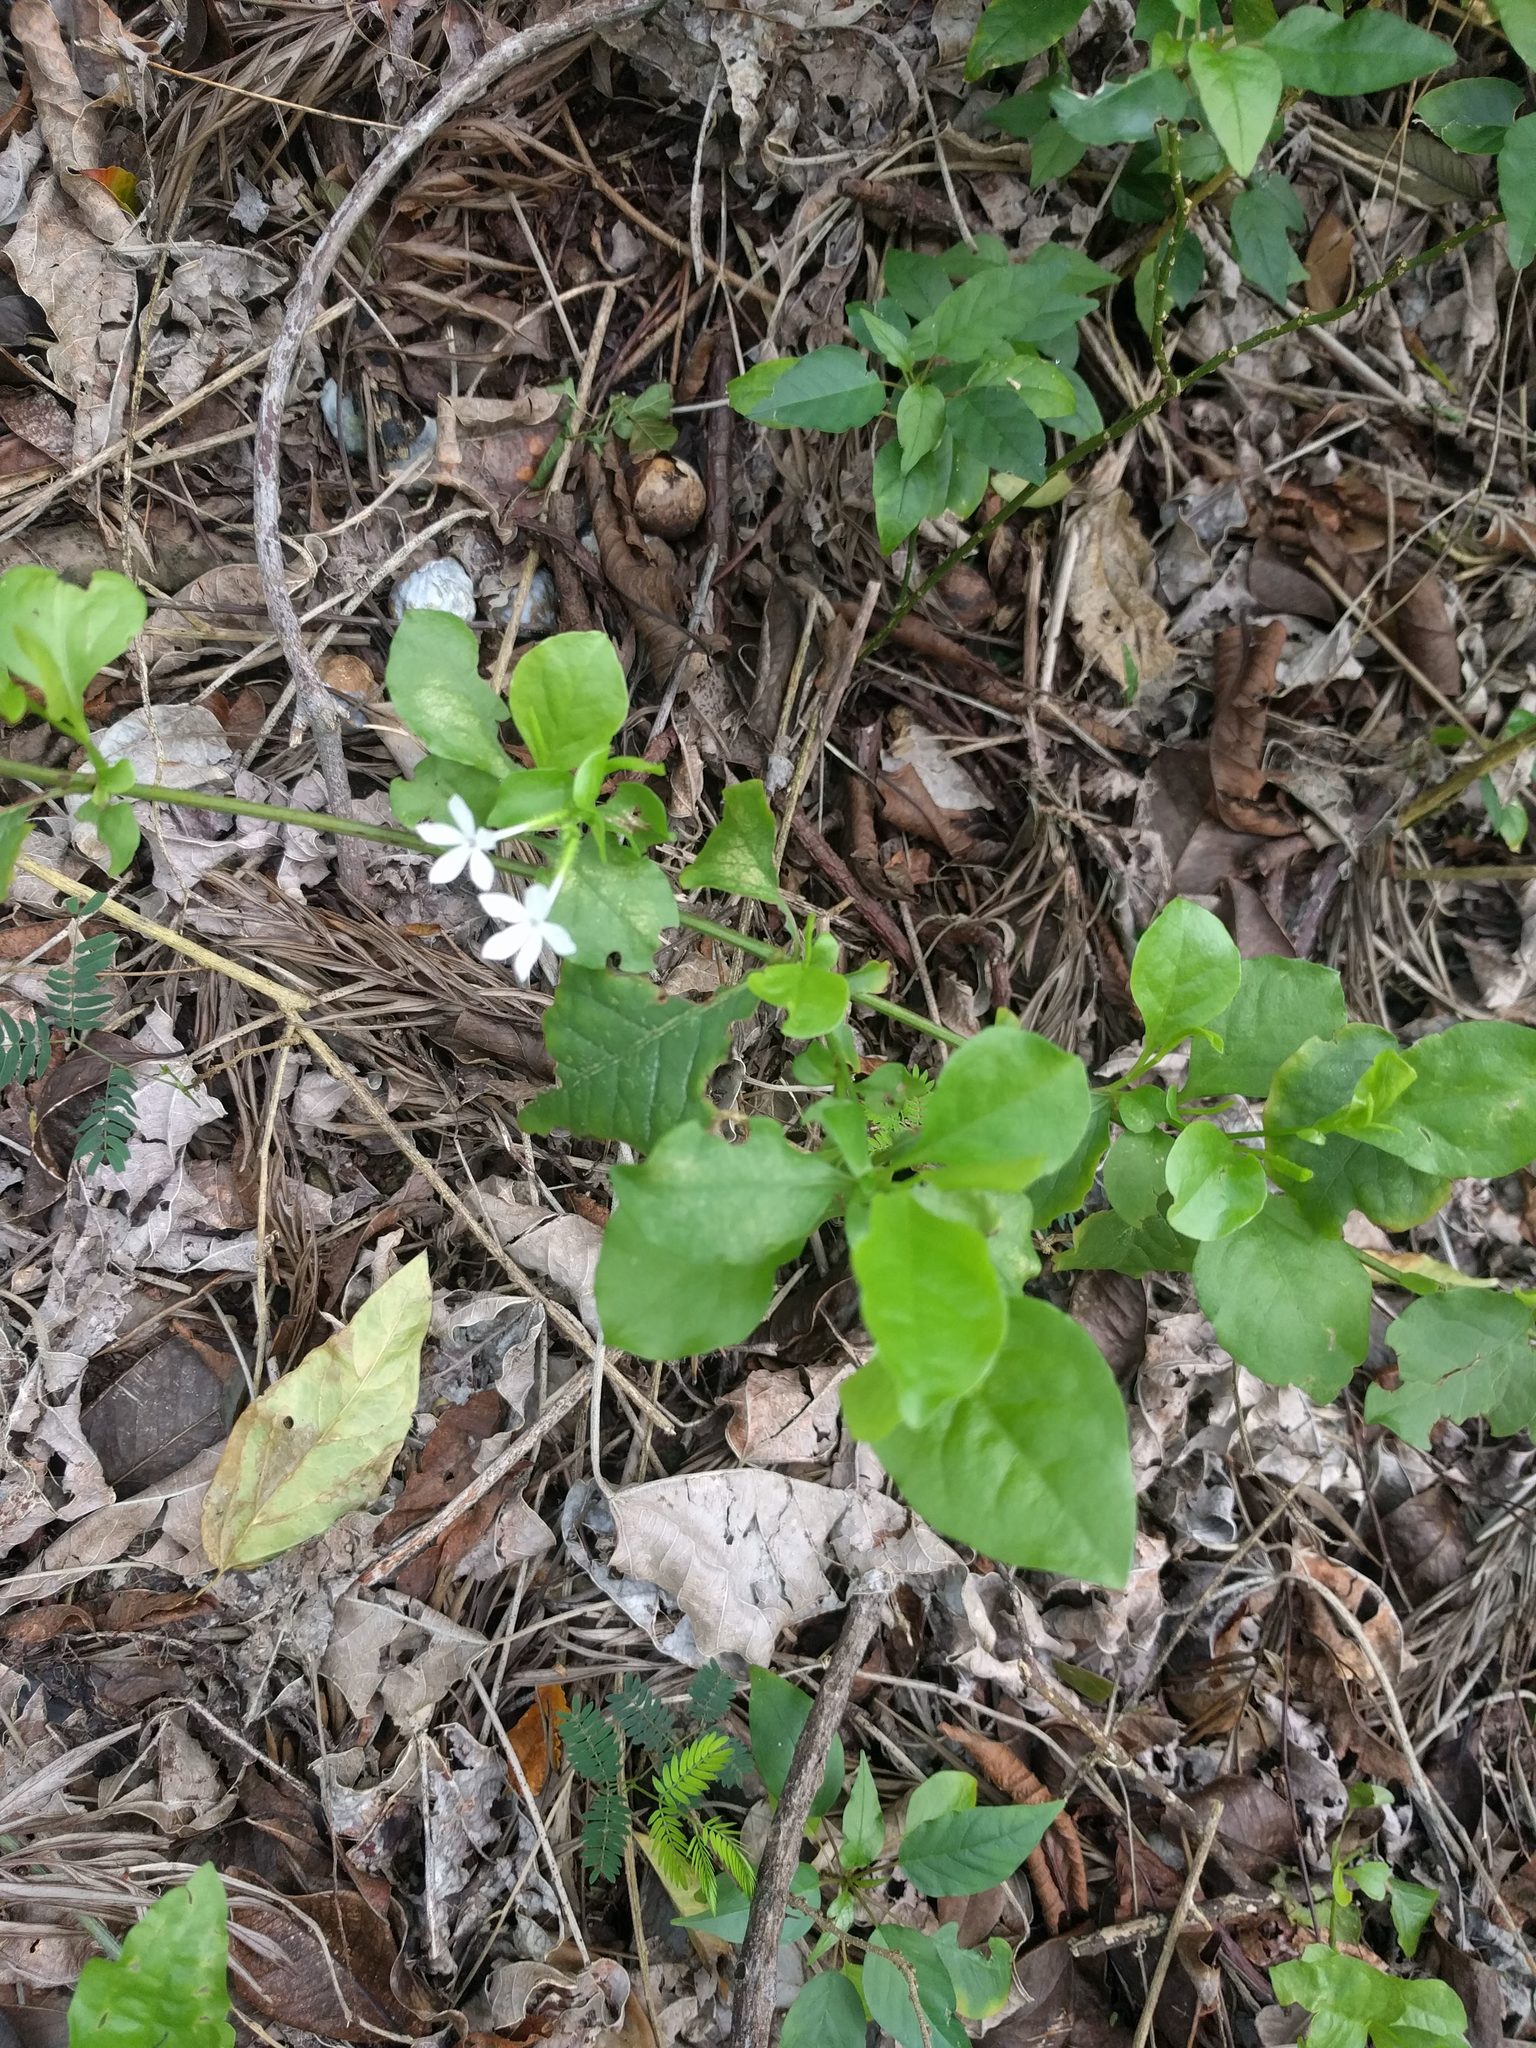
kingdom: Plantae
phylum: Tracheophyta
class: Magnoliopsida
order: Caryophyllales
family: Plumbaginaceae
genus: Plumbago
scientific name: Plumbago zeylanica
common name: Doctorbush
